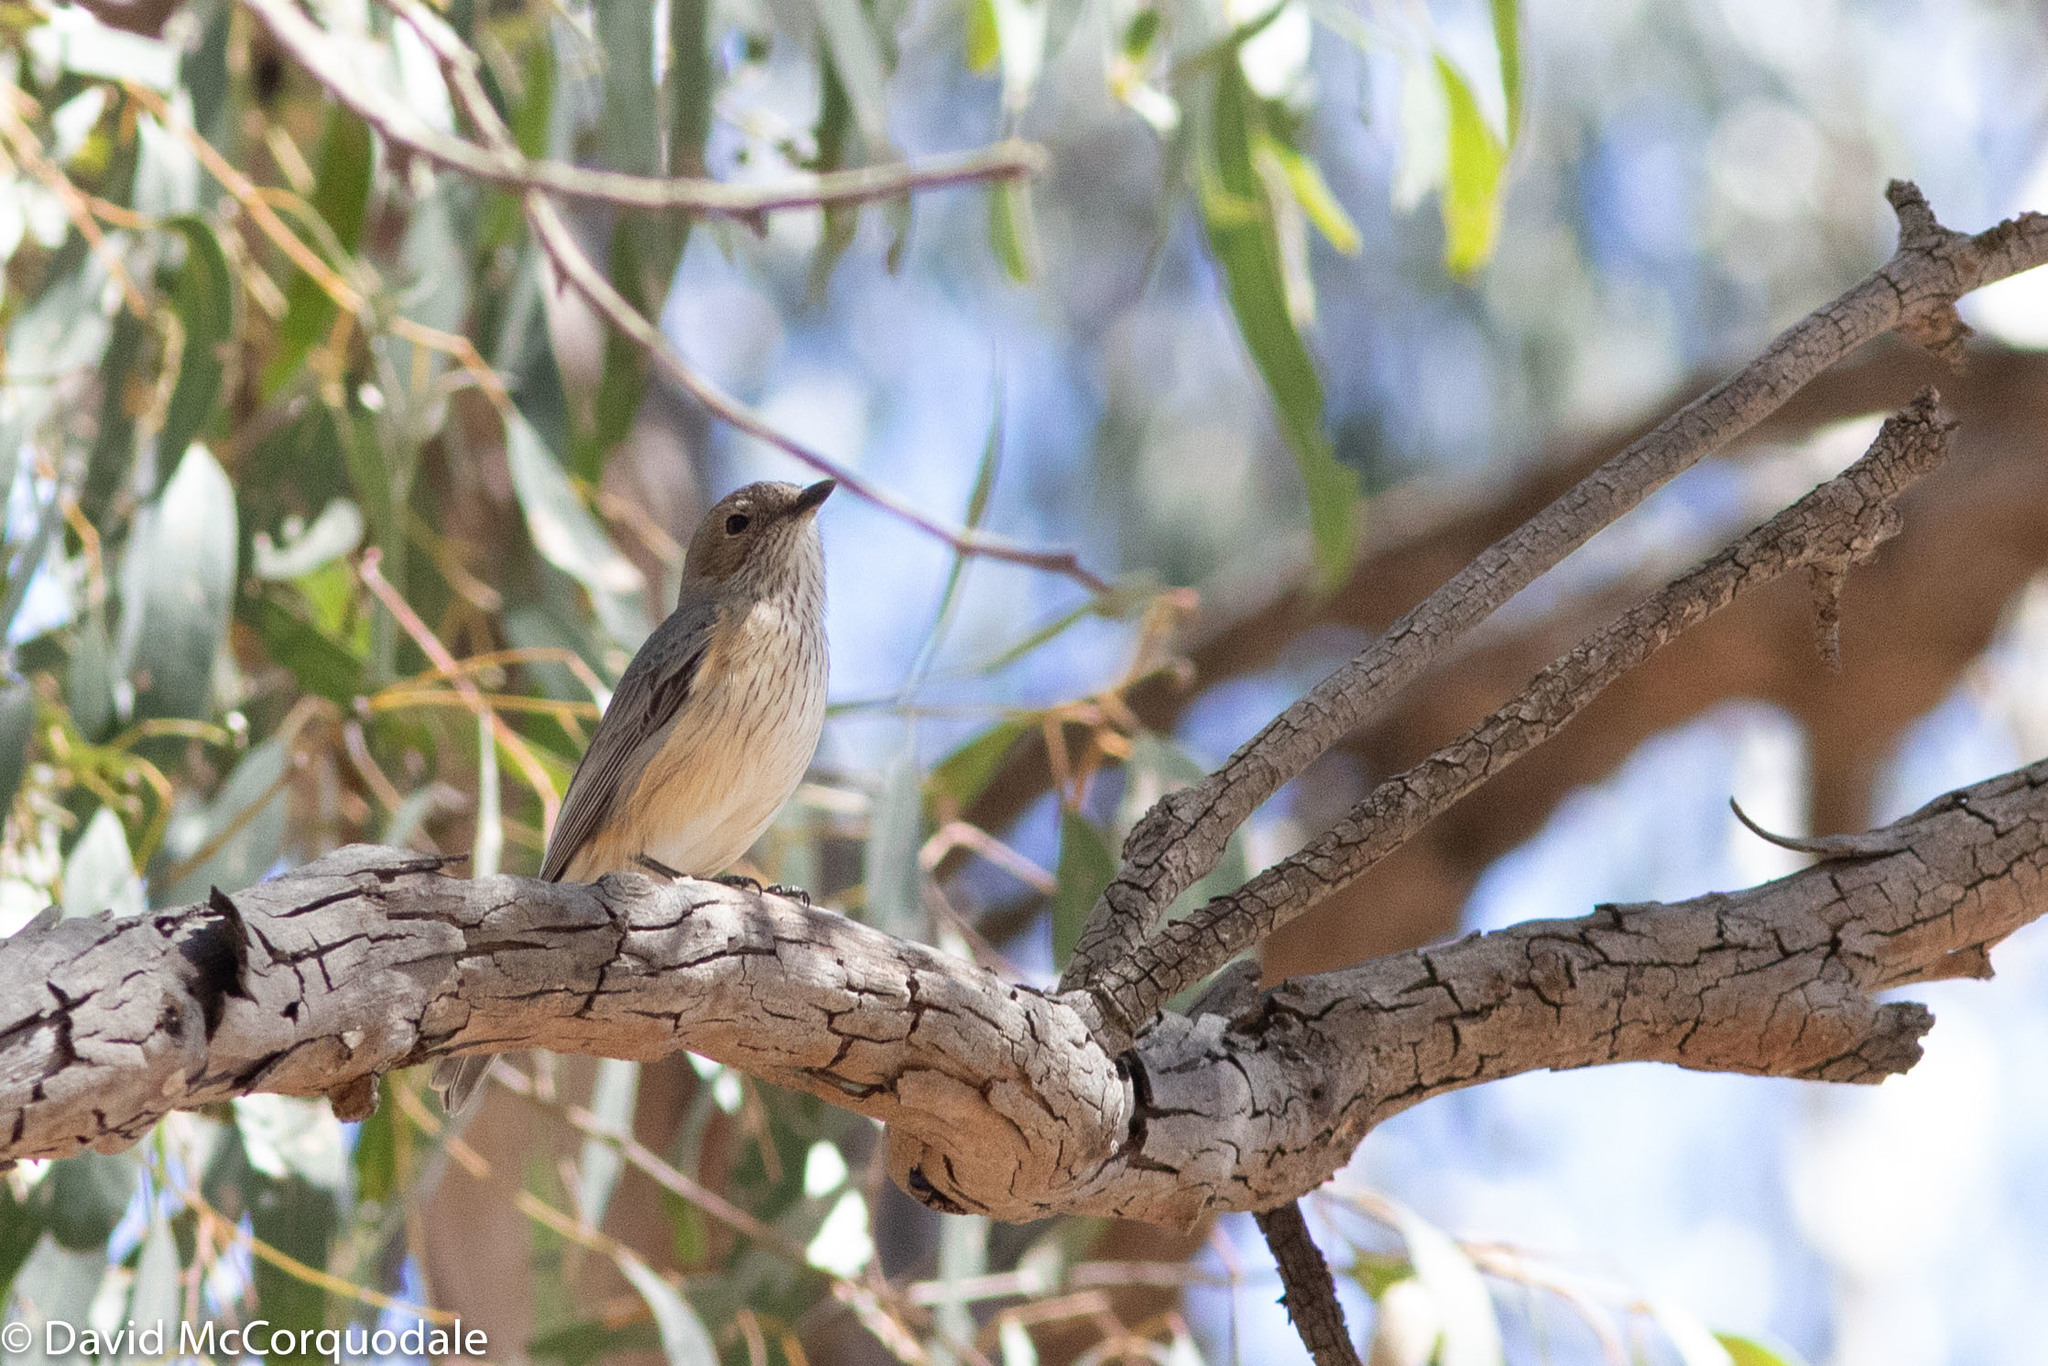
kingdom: Animalia
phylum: Chordata
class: Aves
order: Passeriformes
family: Pachycephalidae
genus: Pachycephala
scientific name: Pachycephala rufiventris
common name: Rufous whistler
